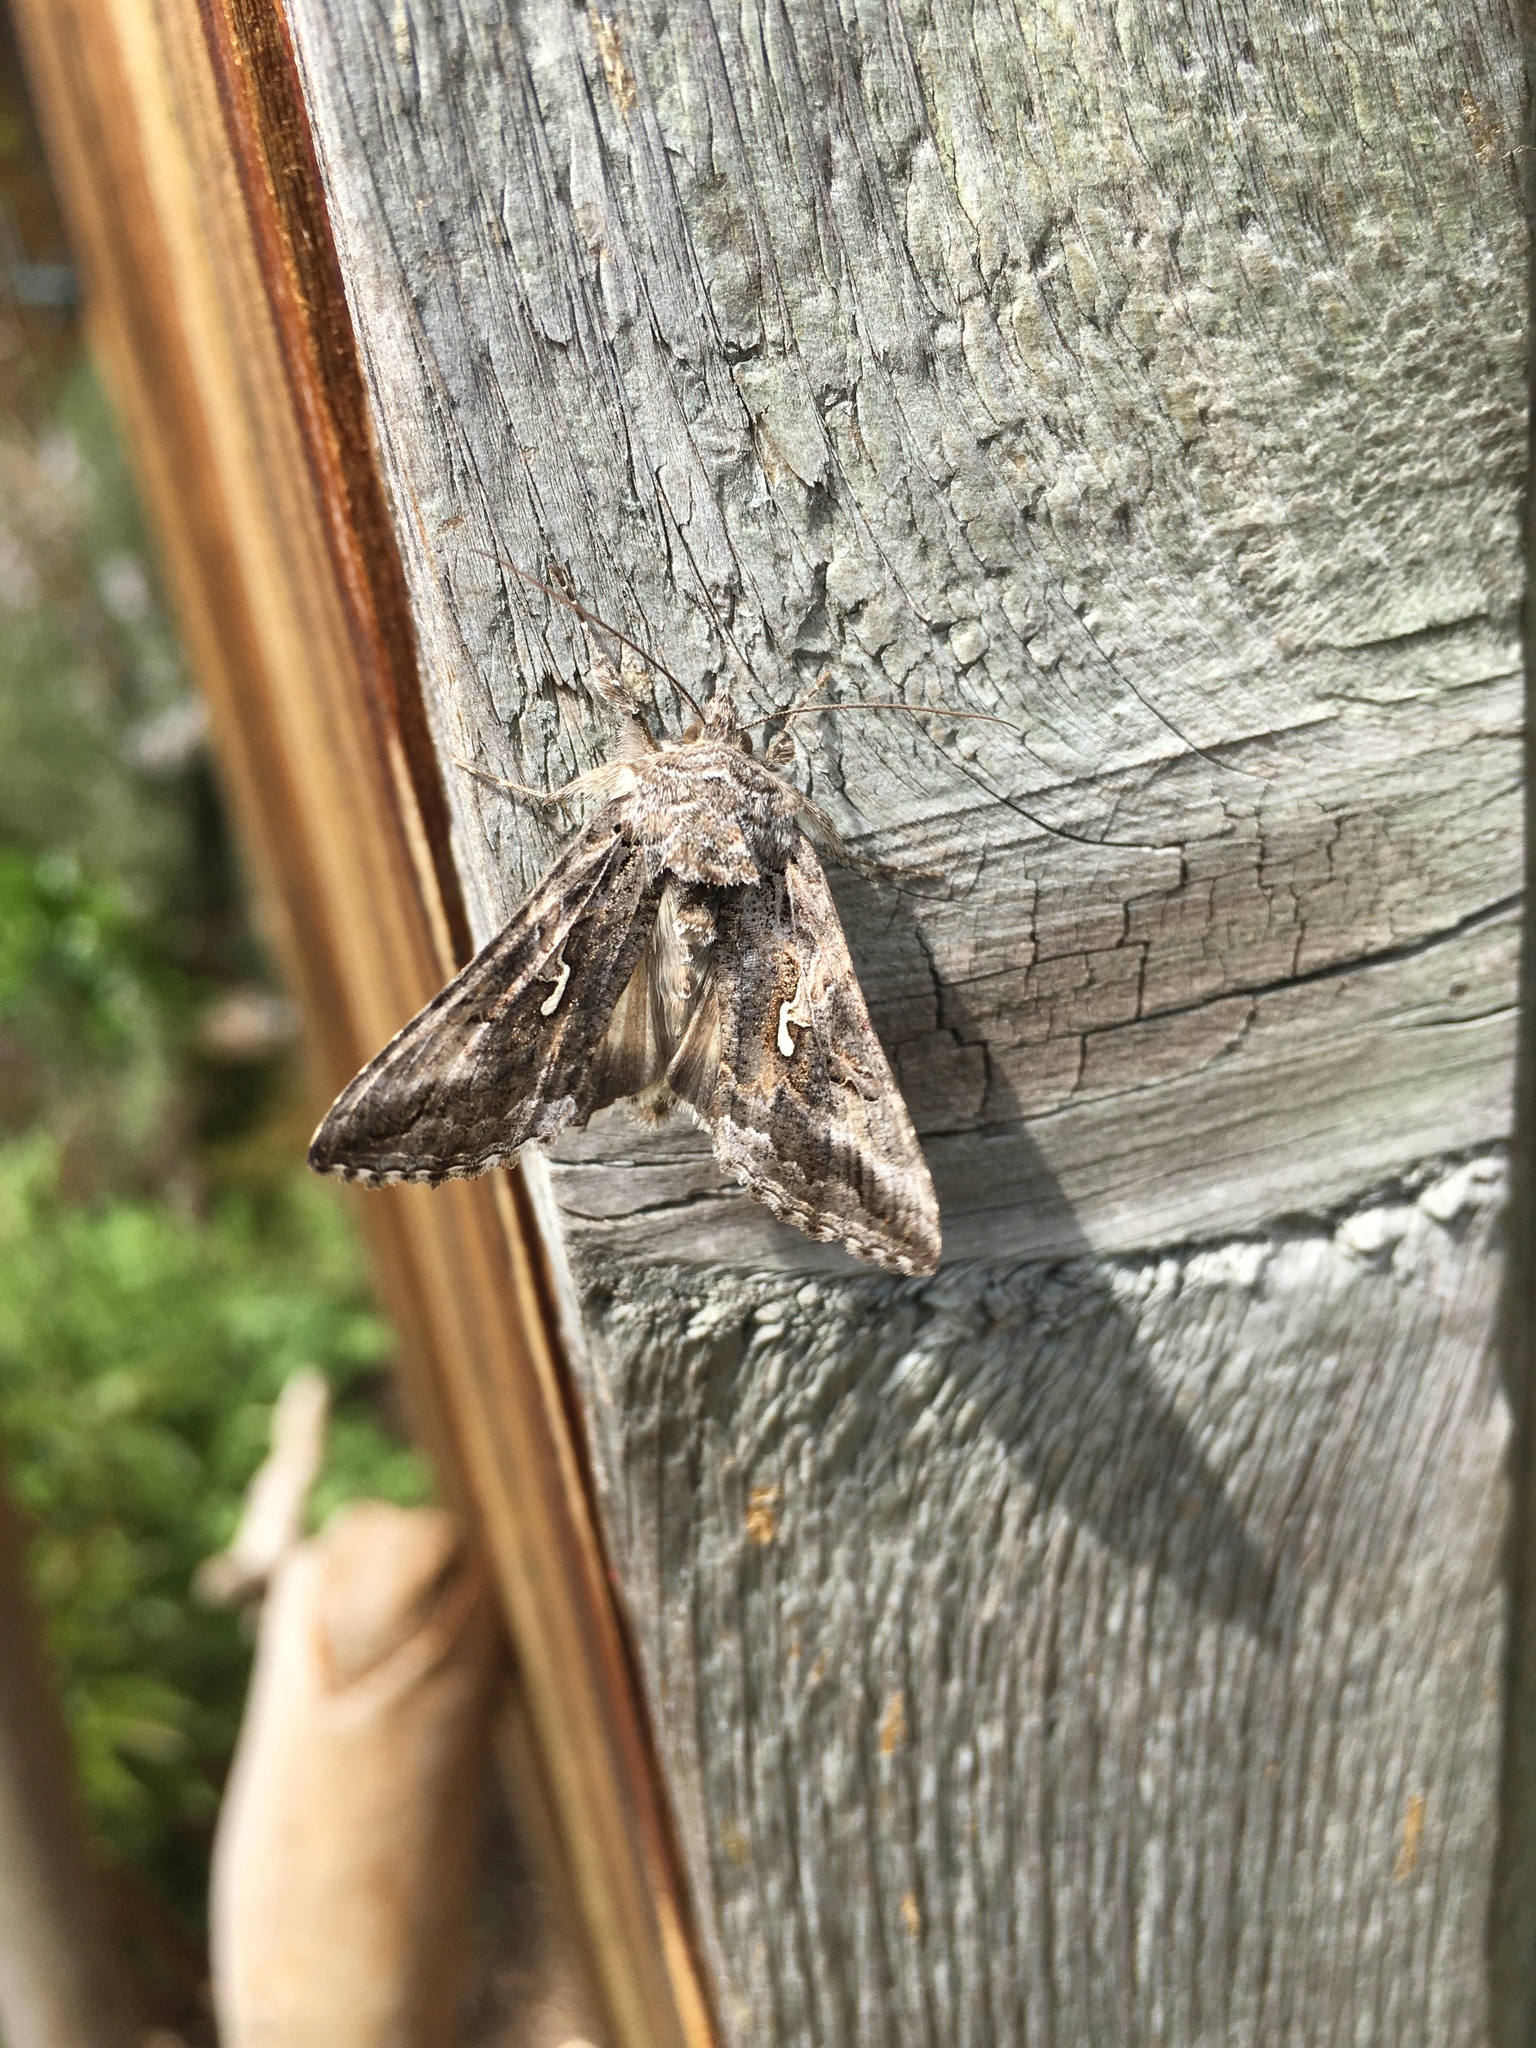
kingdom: Animalia
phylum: Arthropoda
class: Insecta
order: Lepidoptera
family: Noctuidae
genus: Autographa
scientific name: Autographa californica
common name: Alfalfa looper
